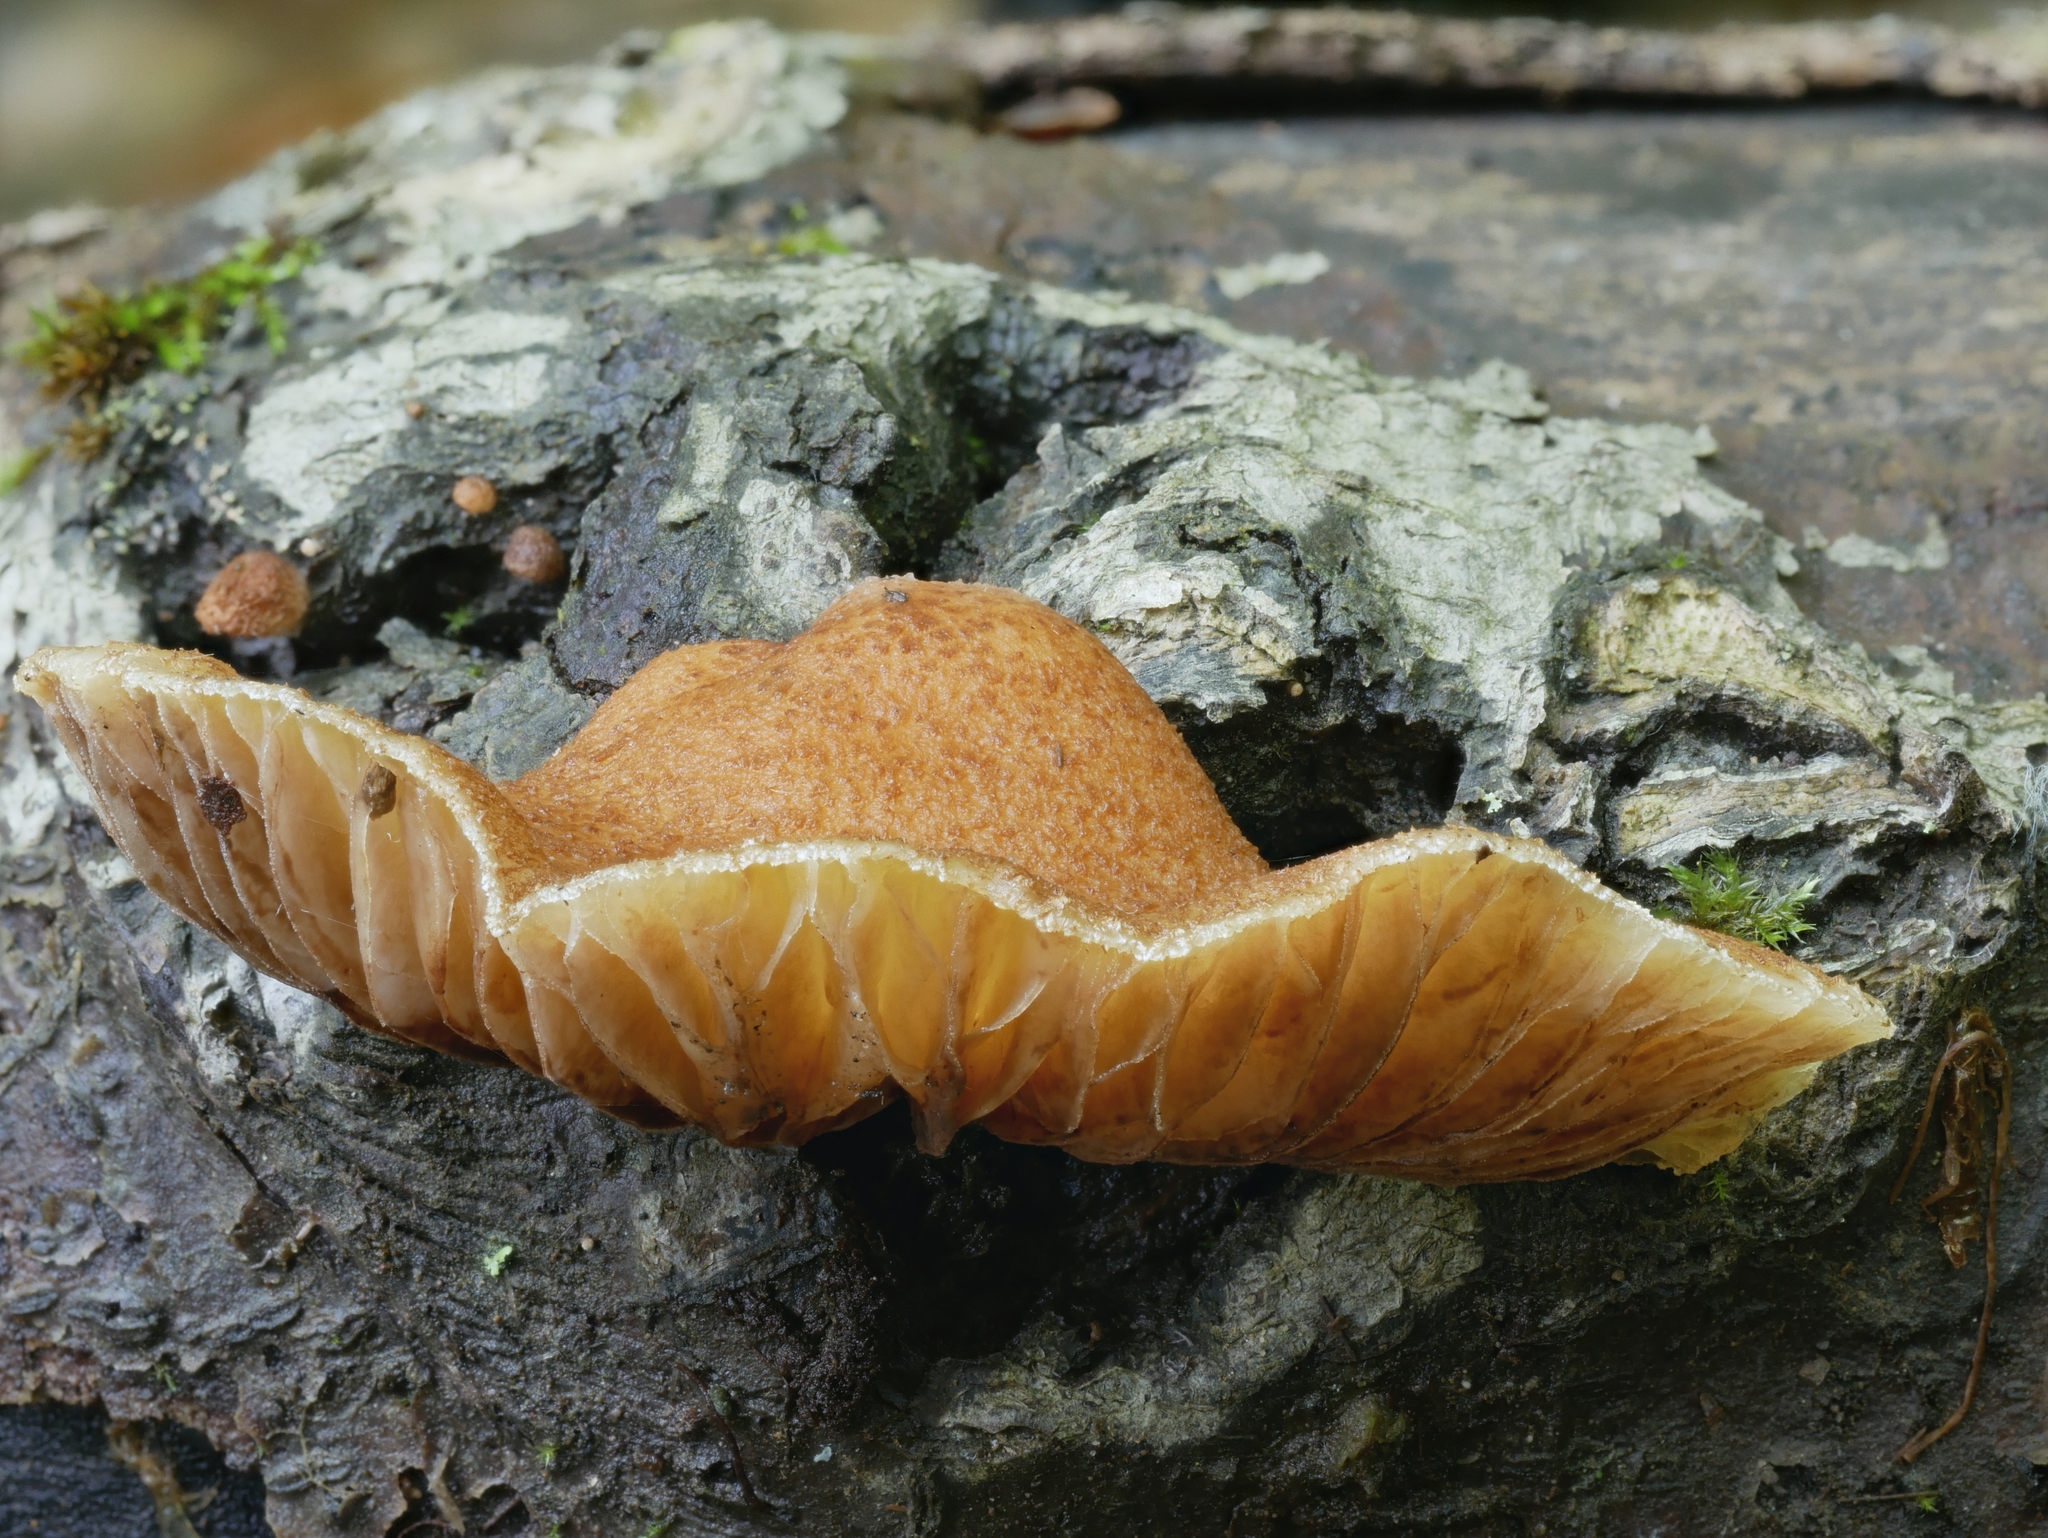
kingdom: Fungi
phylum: Basidiomycota
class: Agaricomycetes
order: Agaricales
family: Crepidotaceae
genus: Crepidotus
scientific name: Crepidotus calolepis
